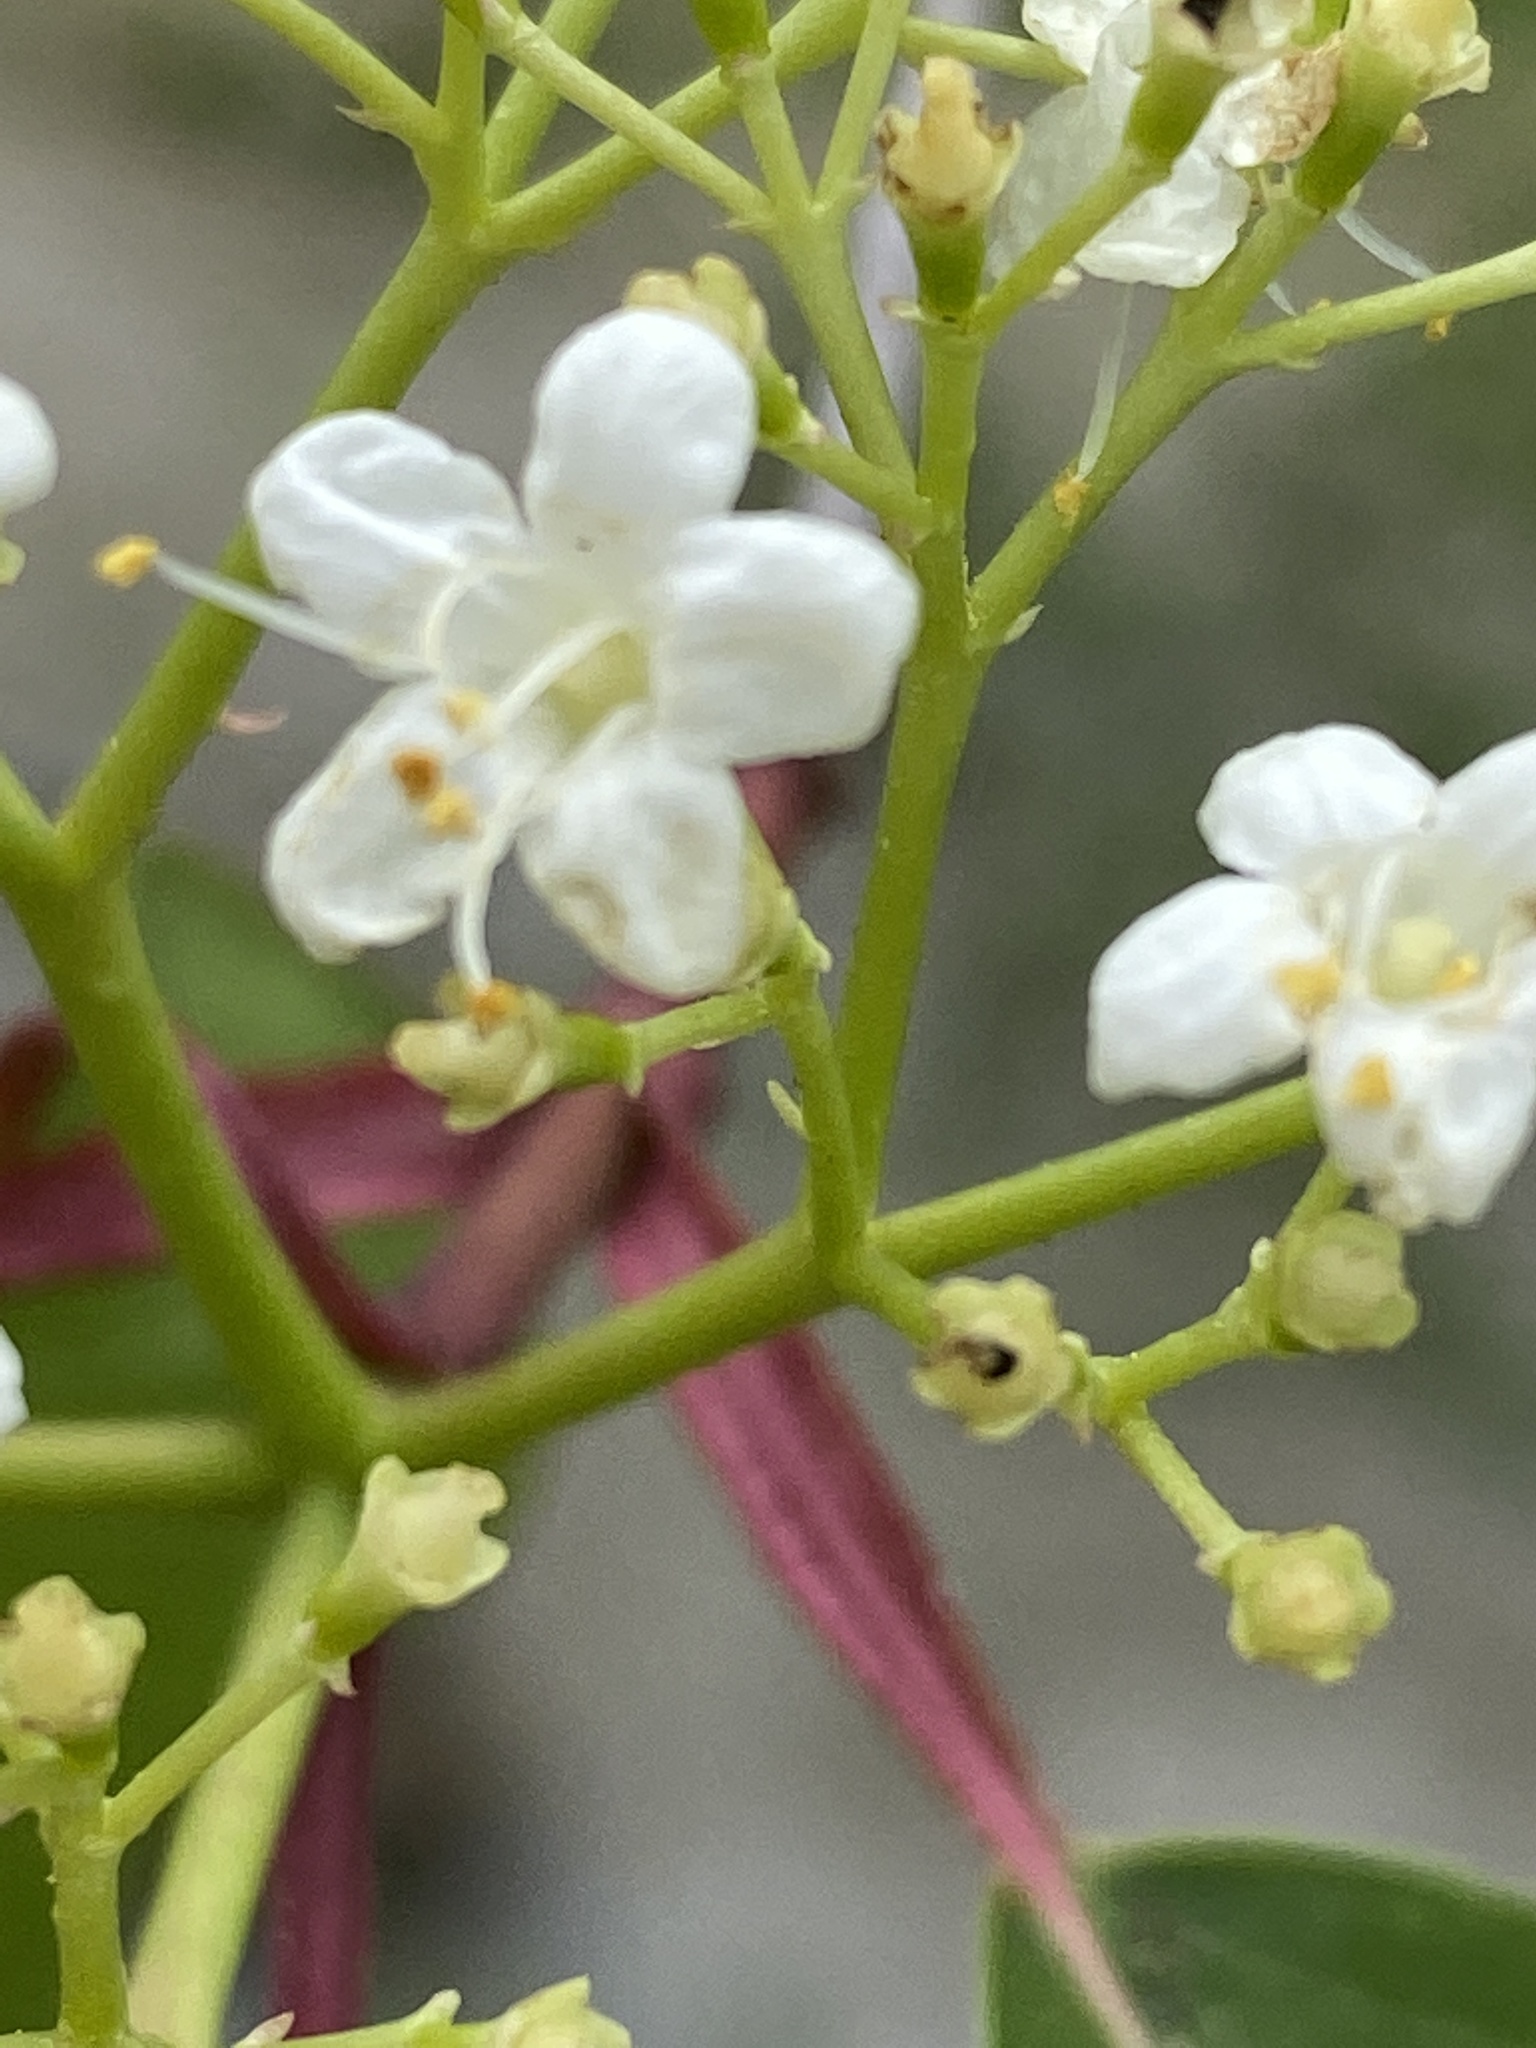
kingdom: Plantae
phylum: Tracheophyta
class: Magnoliopsida
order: Dipsacales
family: Viburnaceae
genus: Viburnum
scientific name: Viburnum prunifolium
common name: Black haw
